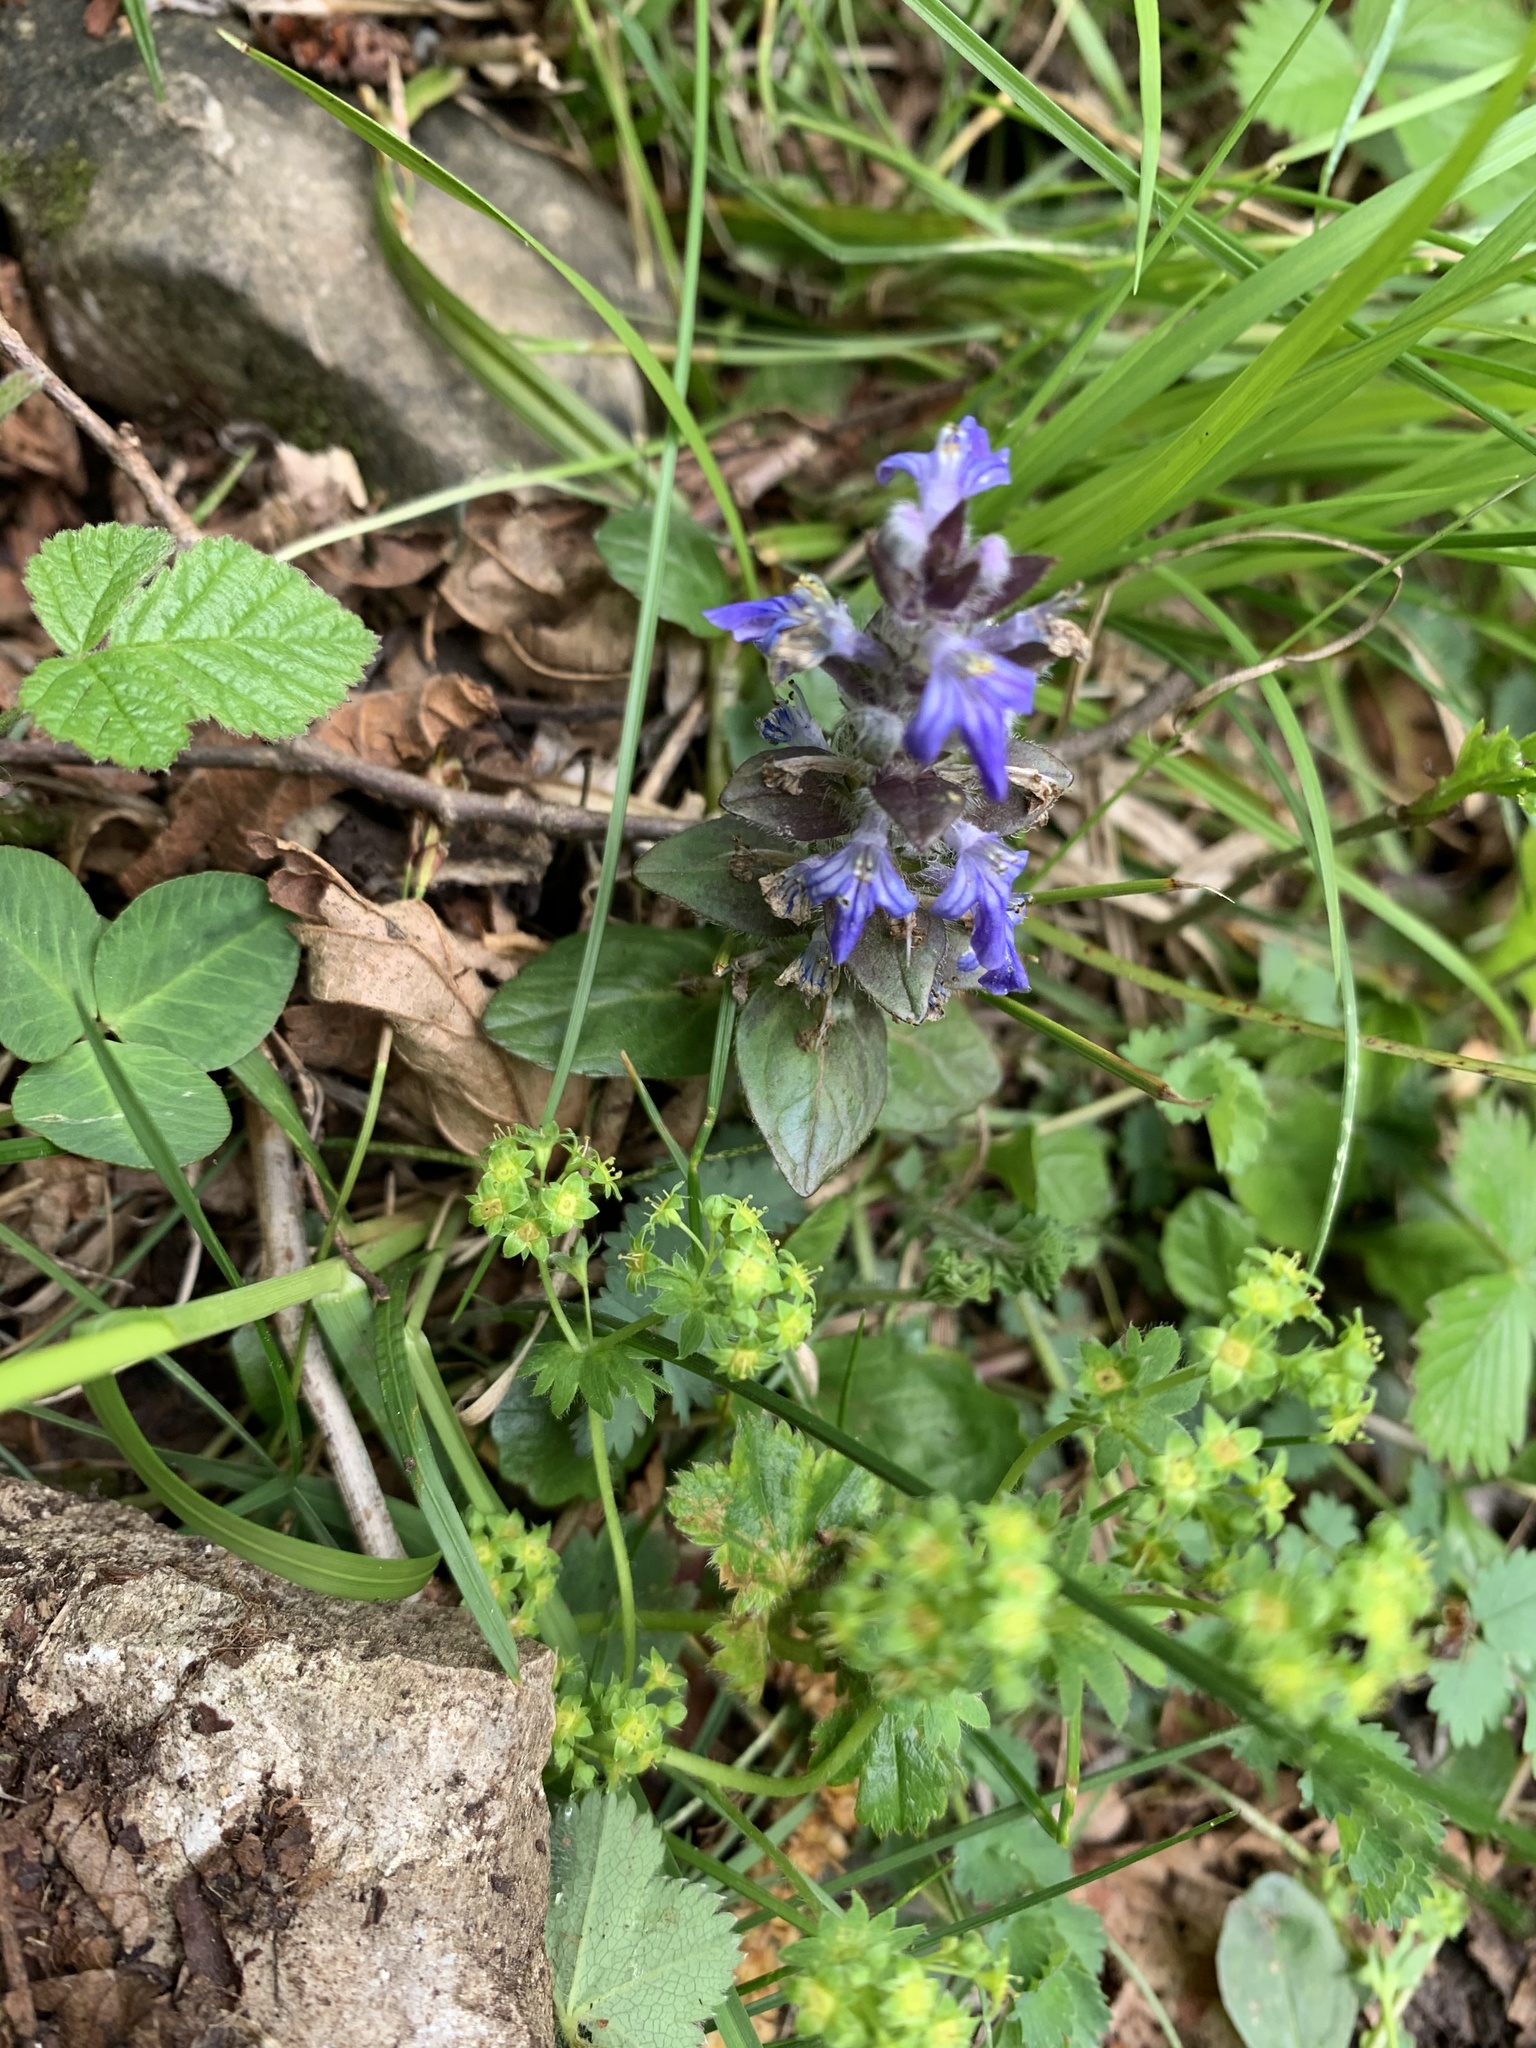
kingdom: Plantae
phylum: Tracheophyta
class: Magnoliopsida
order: Lamiales
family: Lamiaceae
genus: Ajuga
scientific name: Ajuga reptans
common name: Bugle
